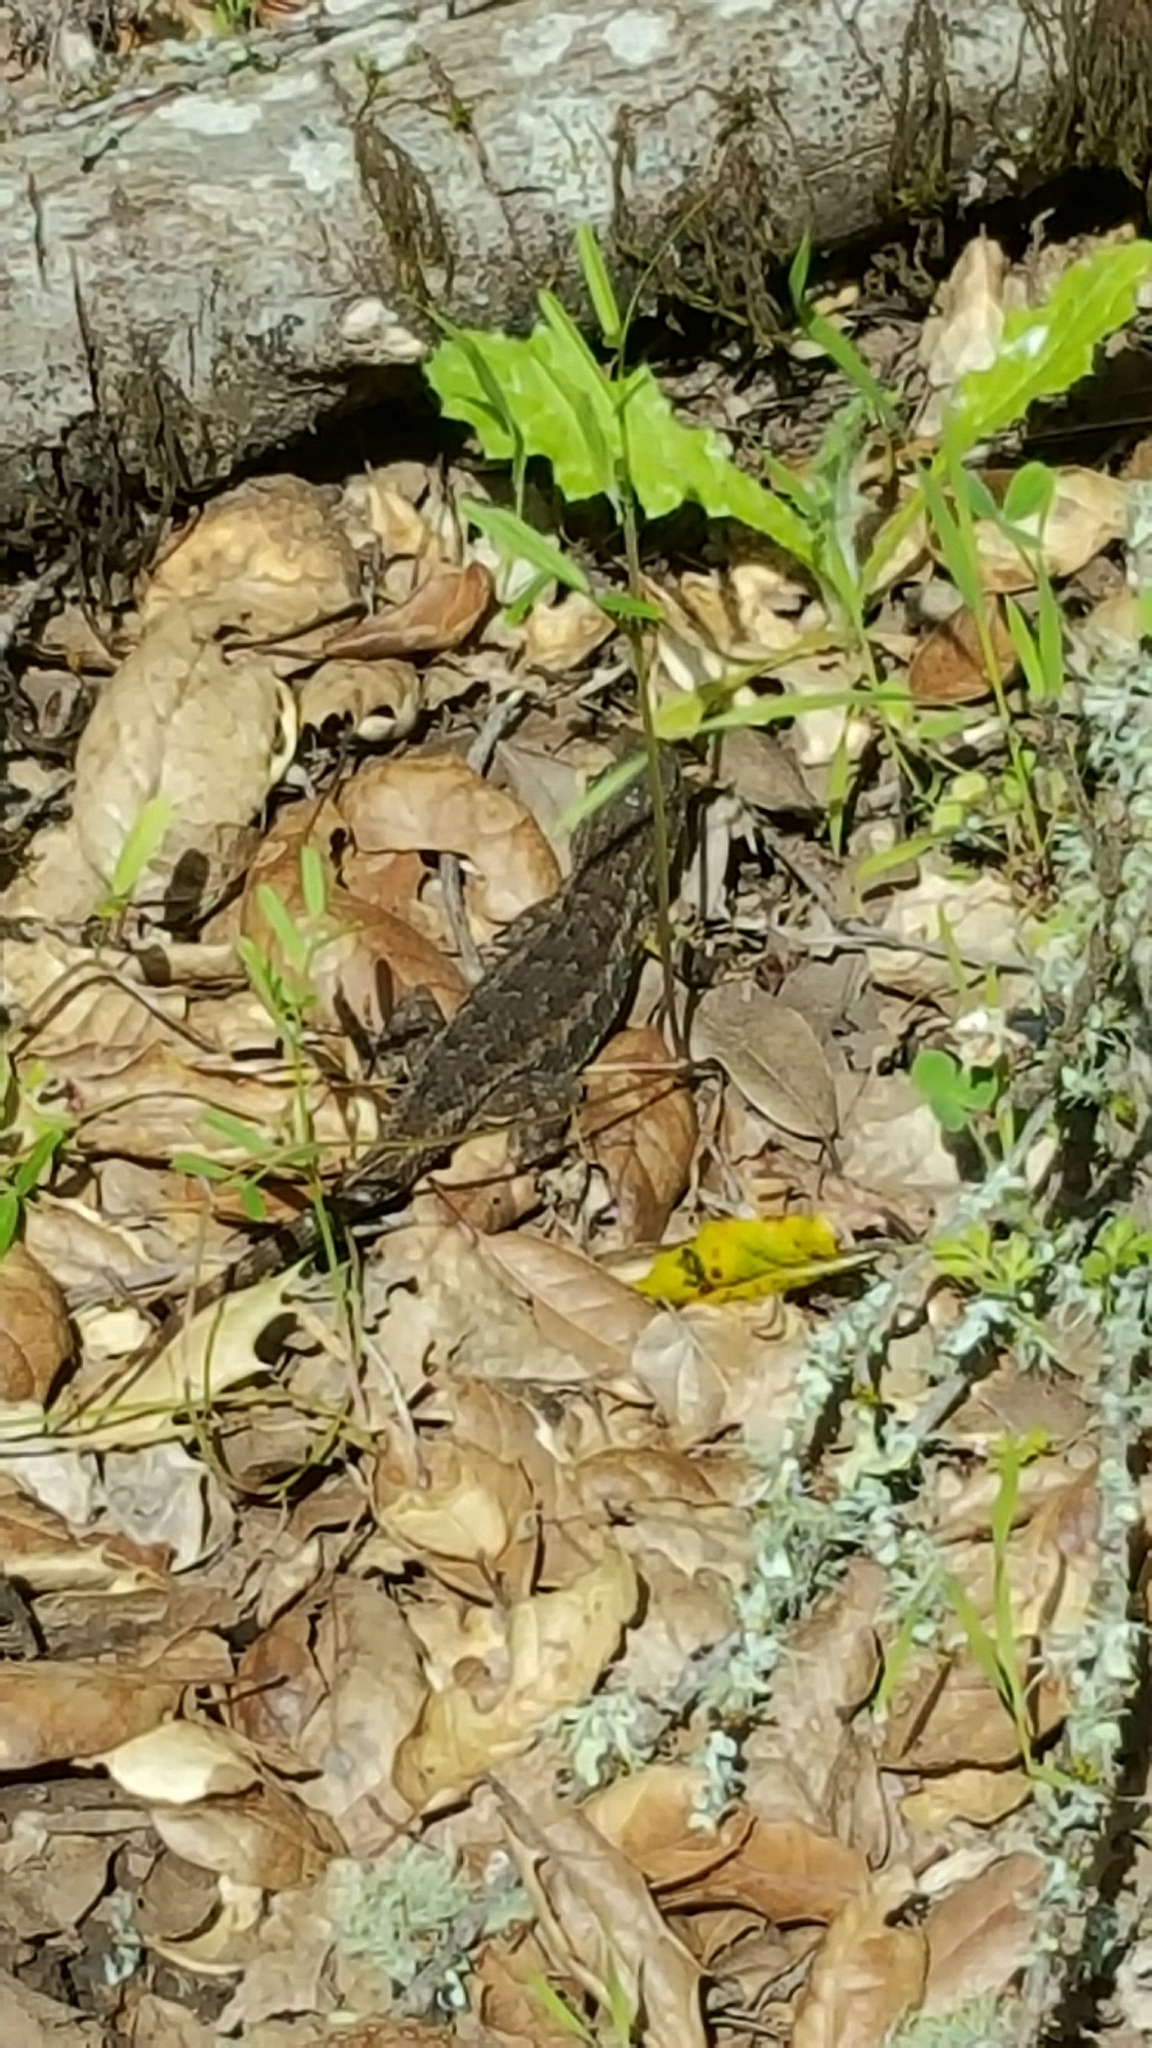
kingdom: Animalia
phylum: Chordata
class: Squamata
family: Phrynosomatidae
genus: Sceloporus
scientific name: Sceloporus occidentalis
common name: Western fence lizard
